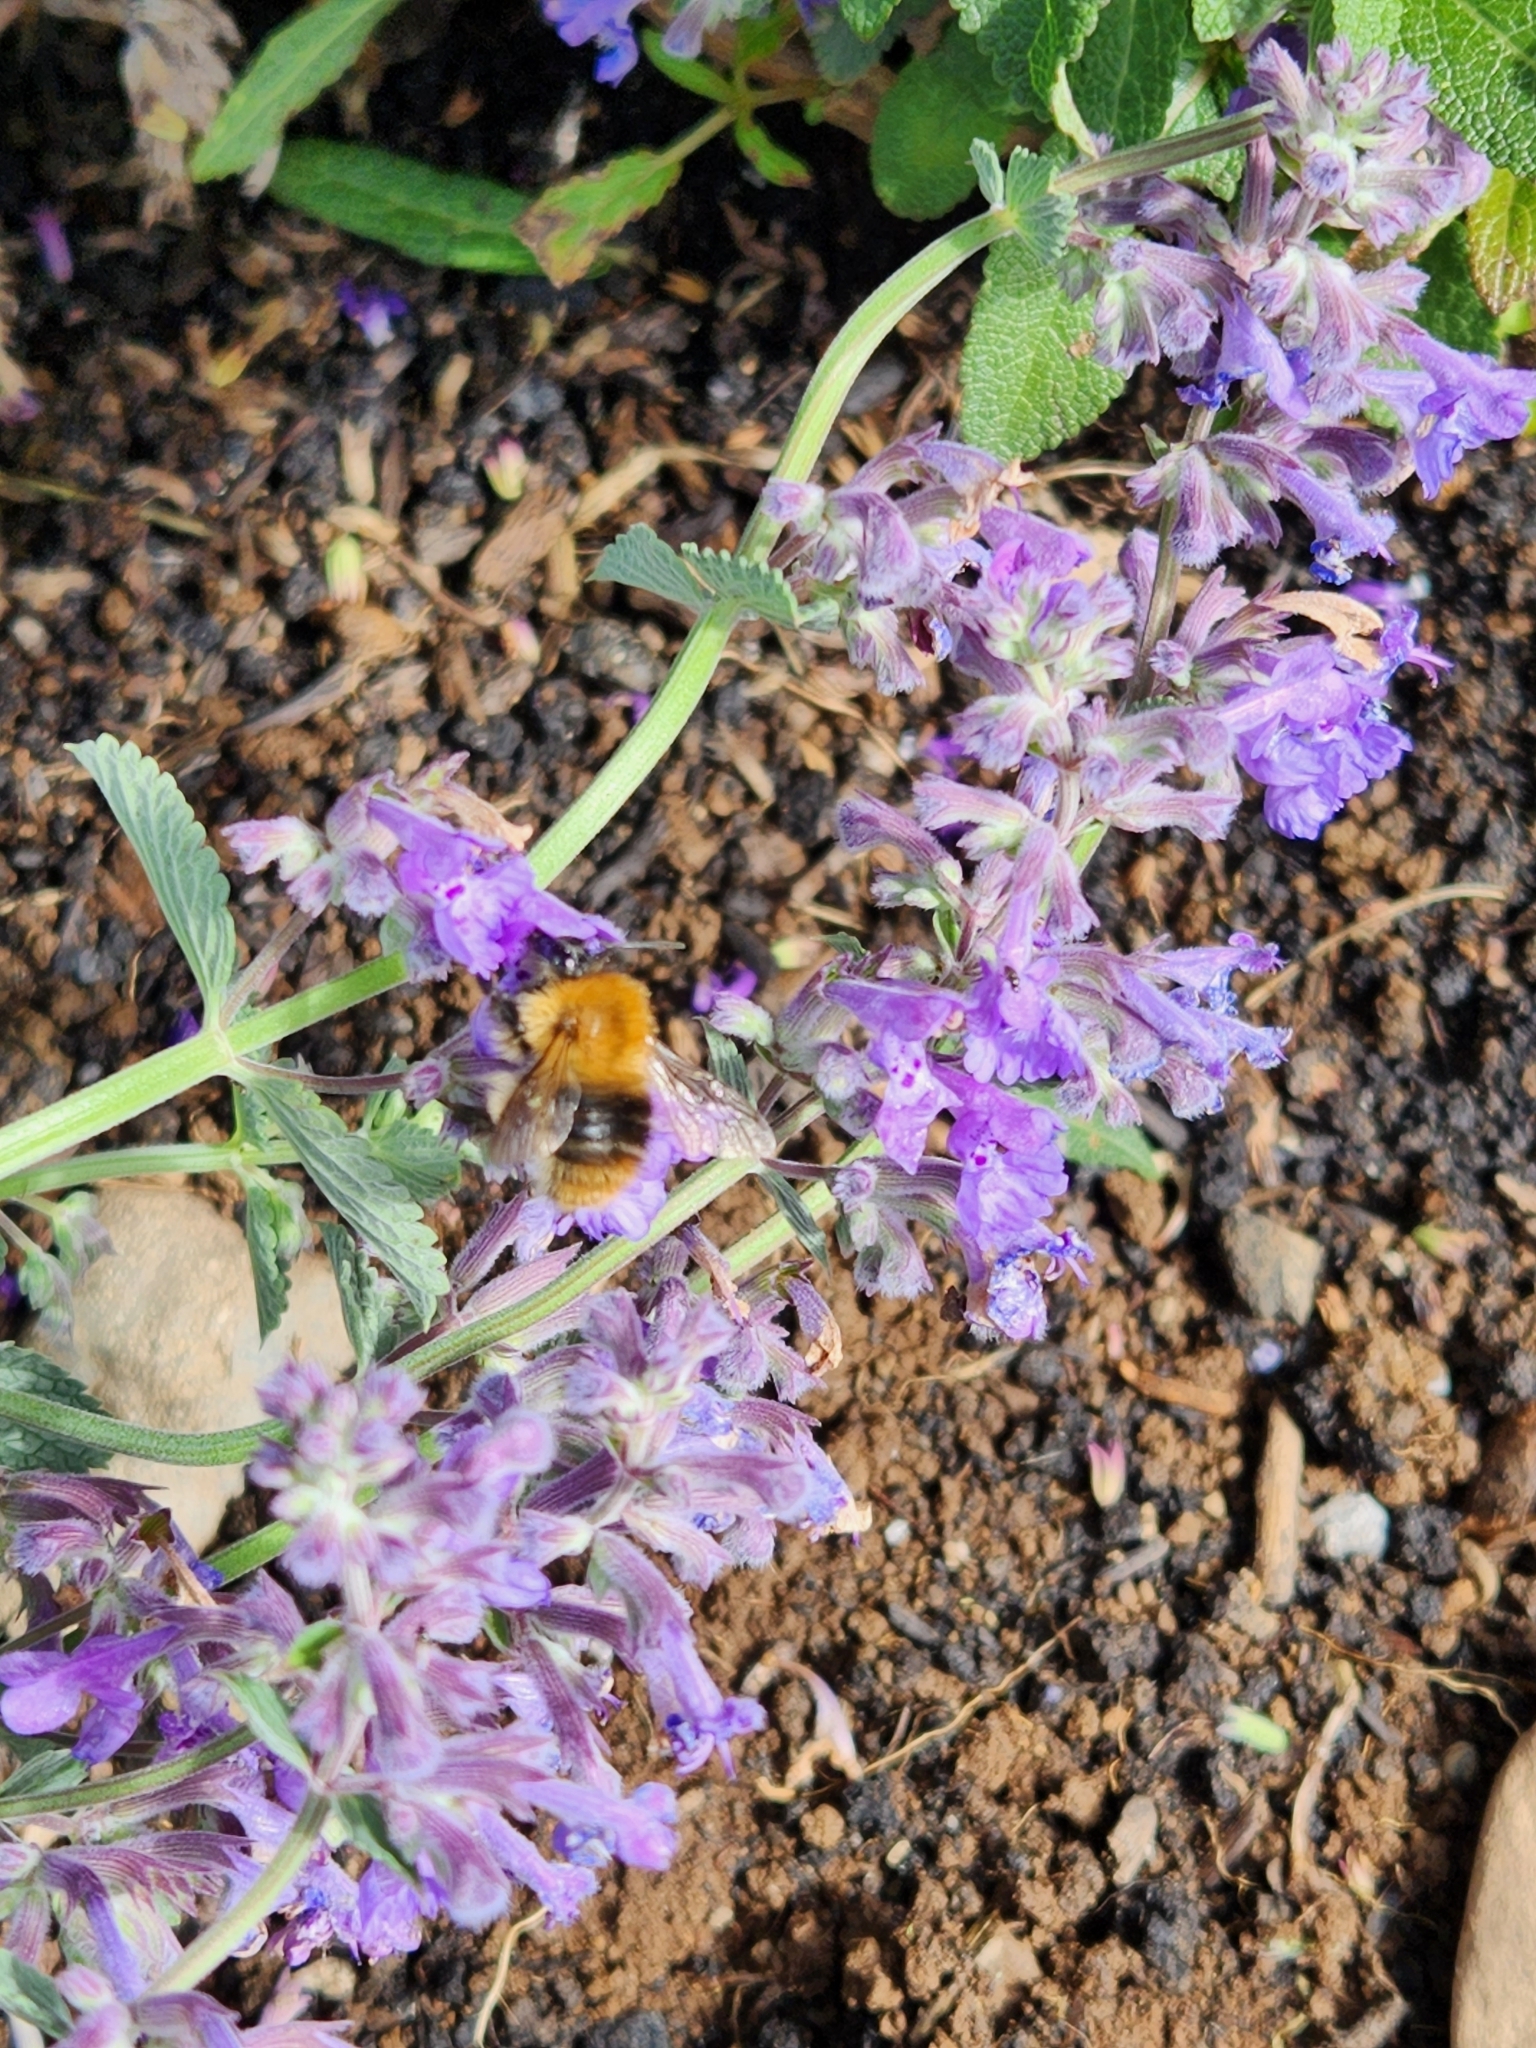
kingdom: Animalia
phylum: Arthropoda
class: Insecta
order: Hymenoptera
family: Apidae
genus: Bombus
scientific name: Bombus pascuorum
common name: Common carder bee
